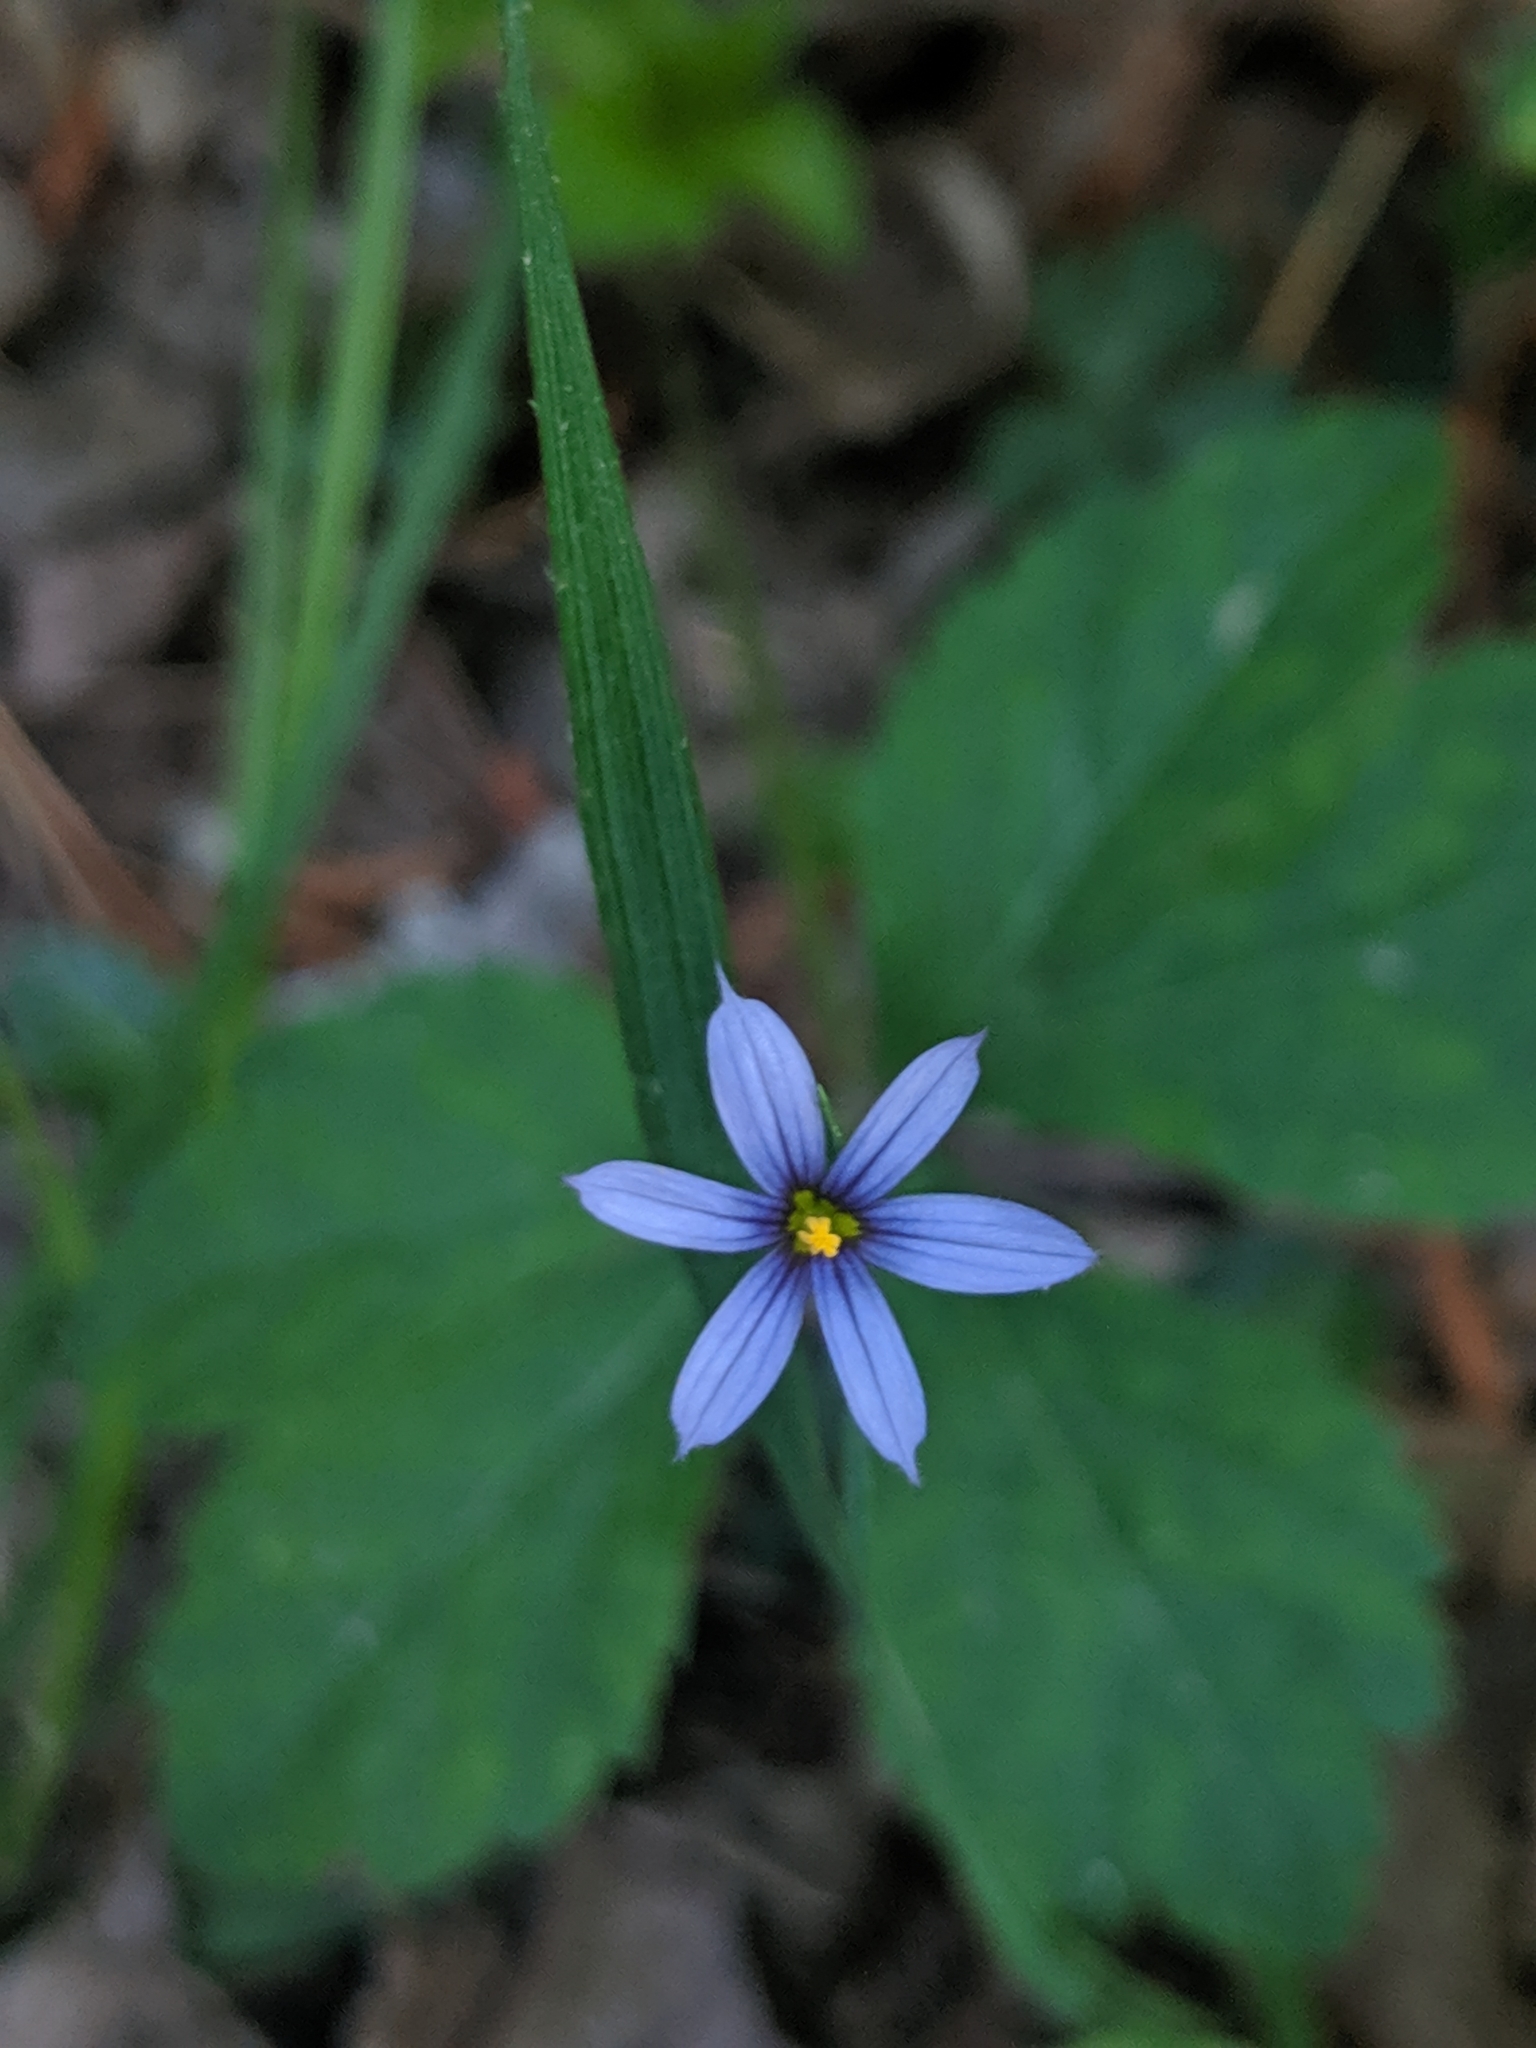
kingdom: Plantae
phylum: Tracheophyta
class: Liliopsida
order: Asparagales
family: Iridaceae
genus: Sisyrinchium
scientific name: Sisyrinchium angustifolium
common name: Narrow-leaf blue-eyed-grass
